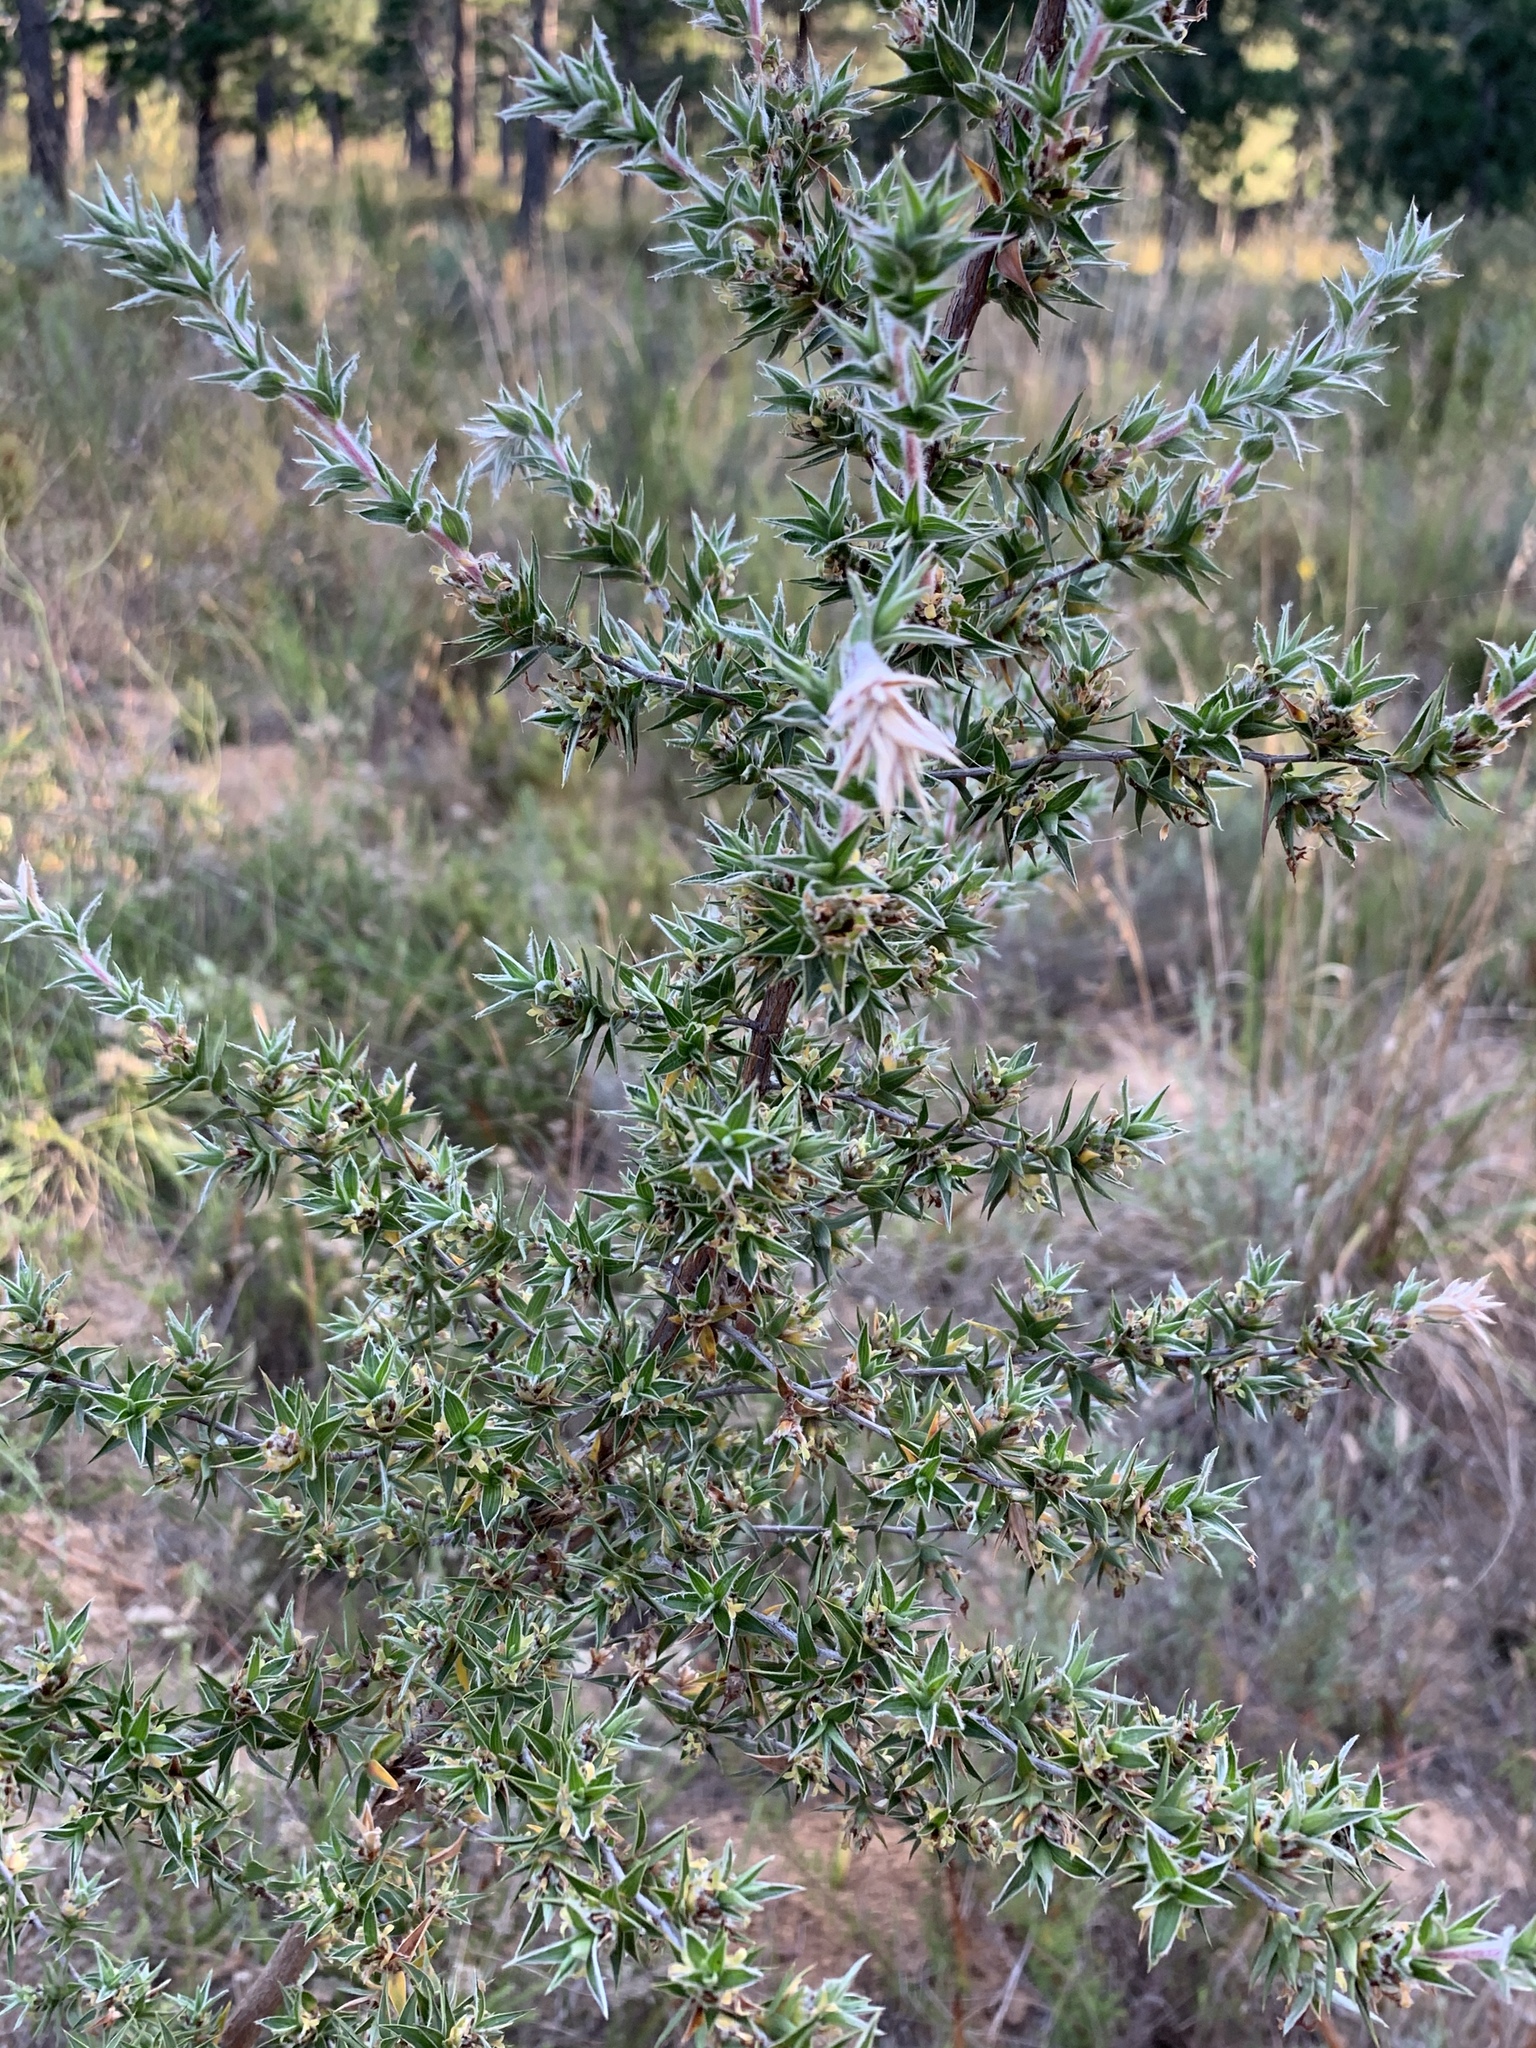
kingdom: Plantae
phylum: Tracheophyta
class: Magnoliopsida
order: Rosales
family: Rosaceae
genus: Cliffortia
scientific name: Cliffortia ruscifolia
